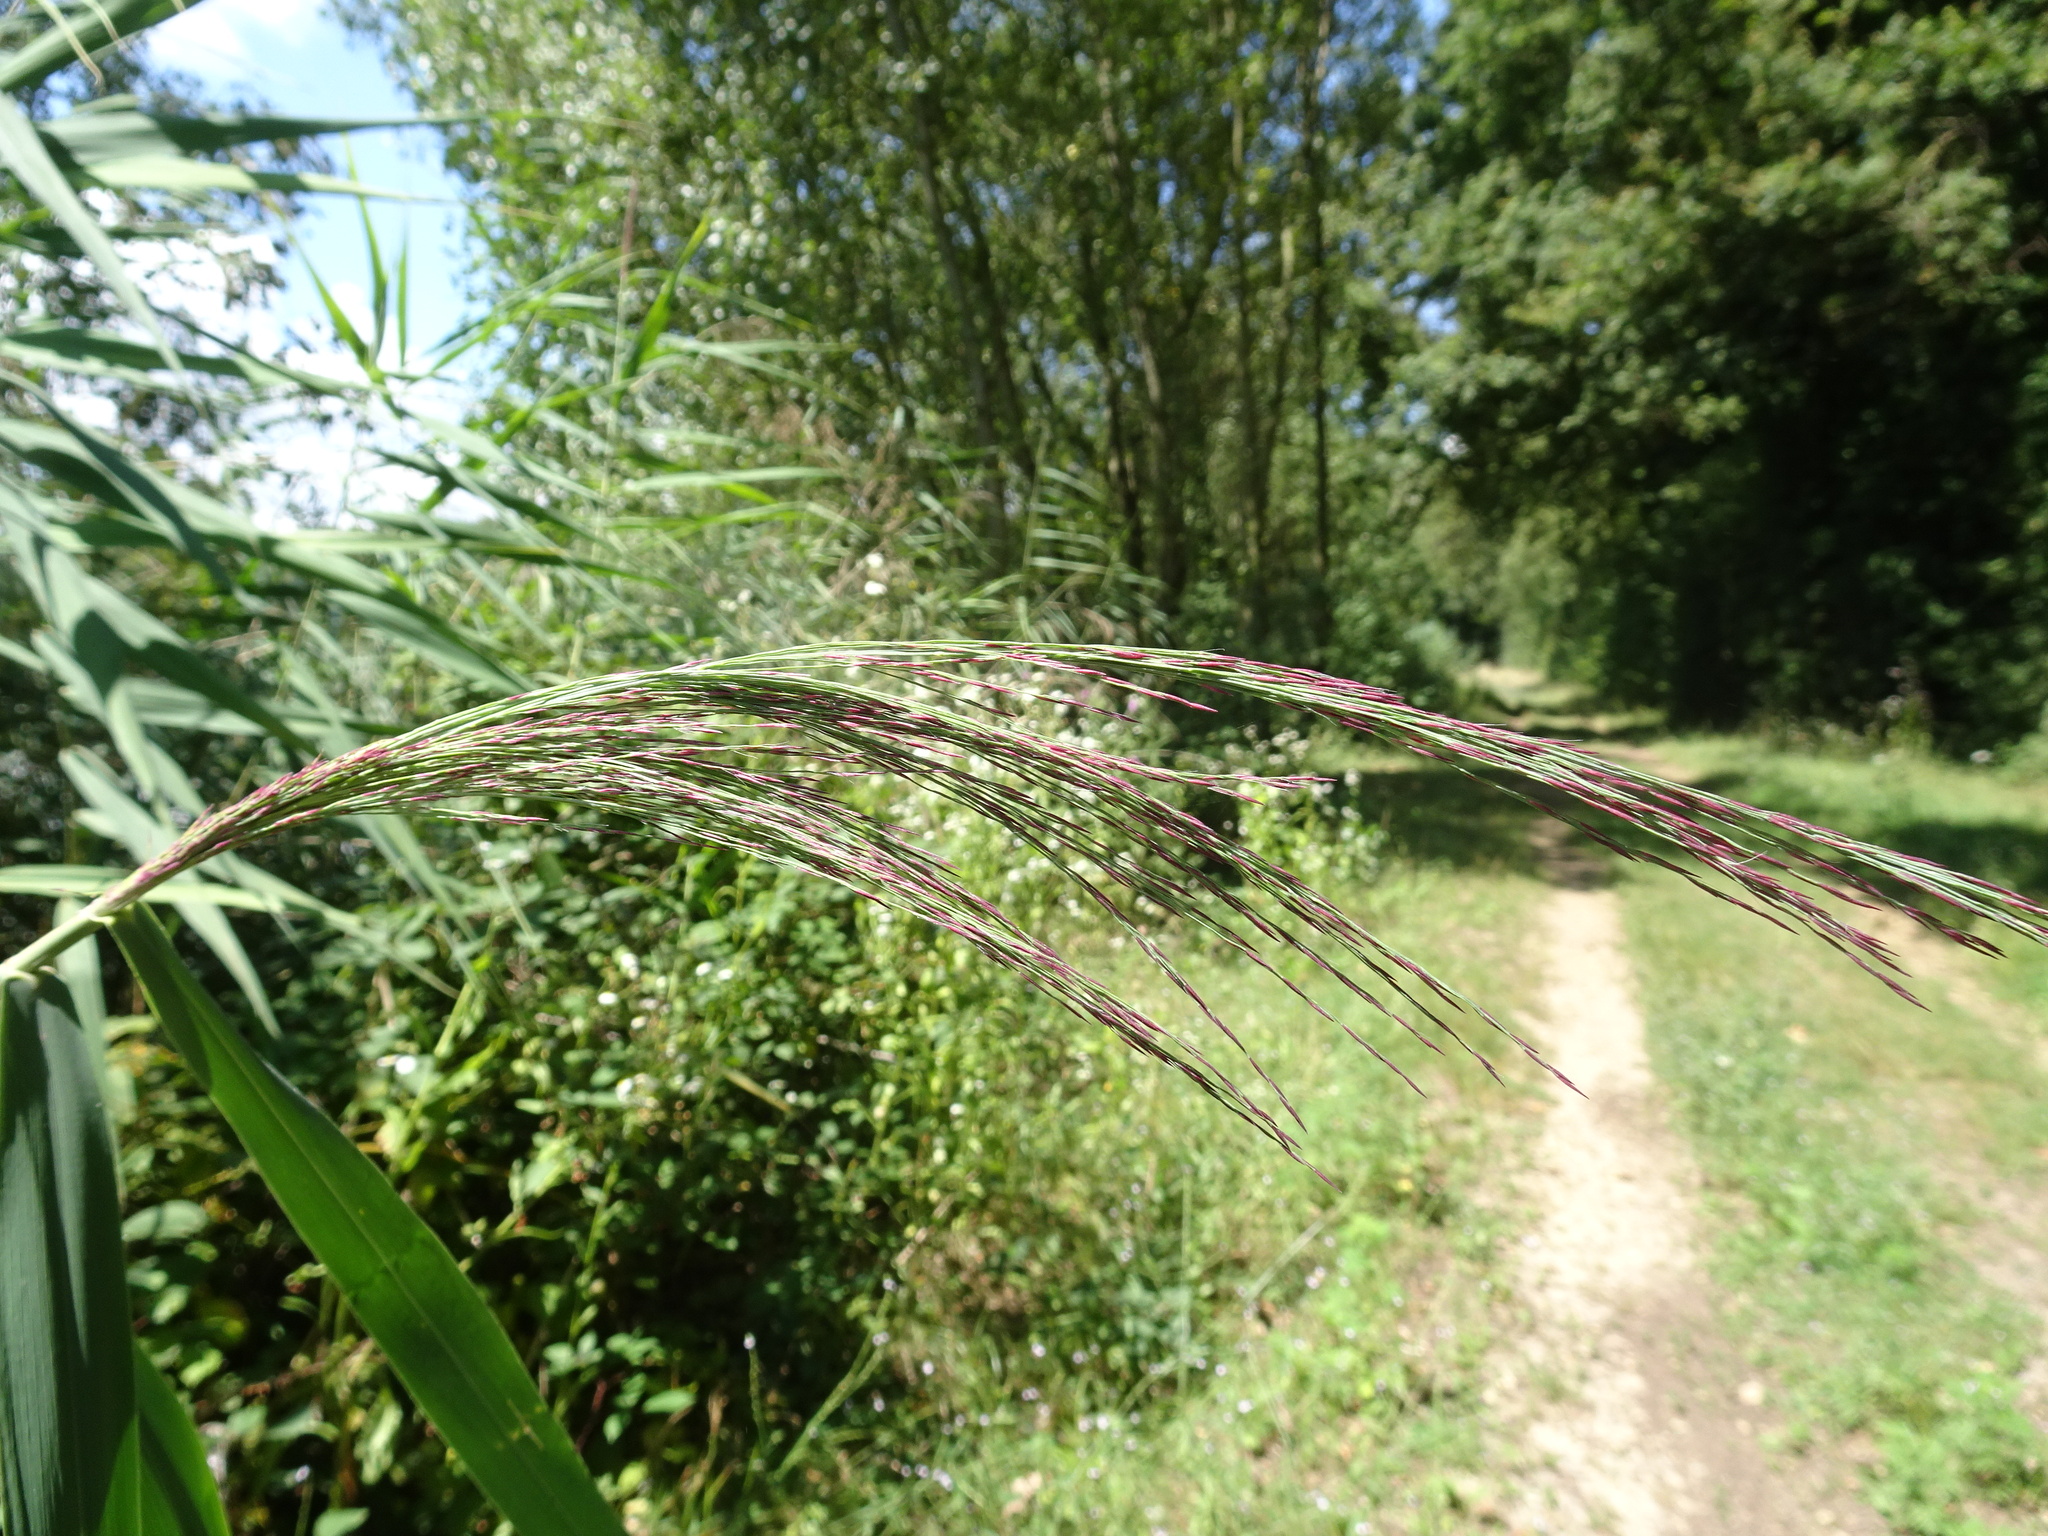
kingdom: Plantae
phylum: Tracheophyta
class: Liliopsida
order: Poales
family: Poaceae
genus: Phragmites
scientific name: Phragmites australis
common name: Common reed
